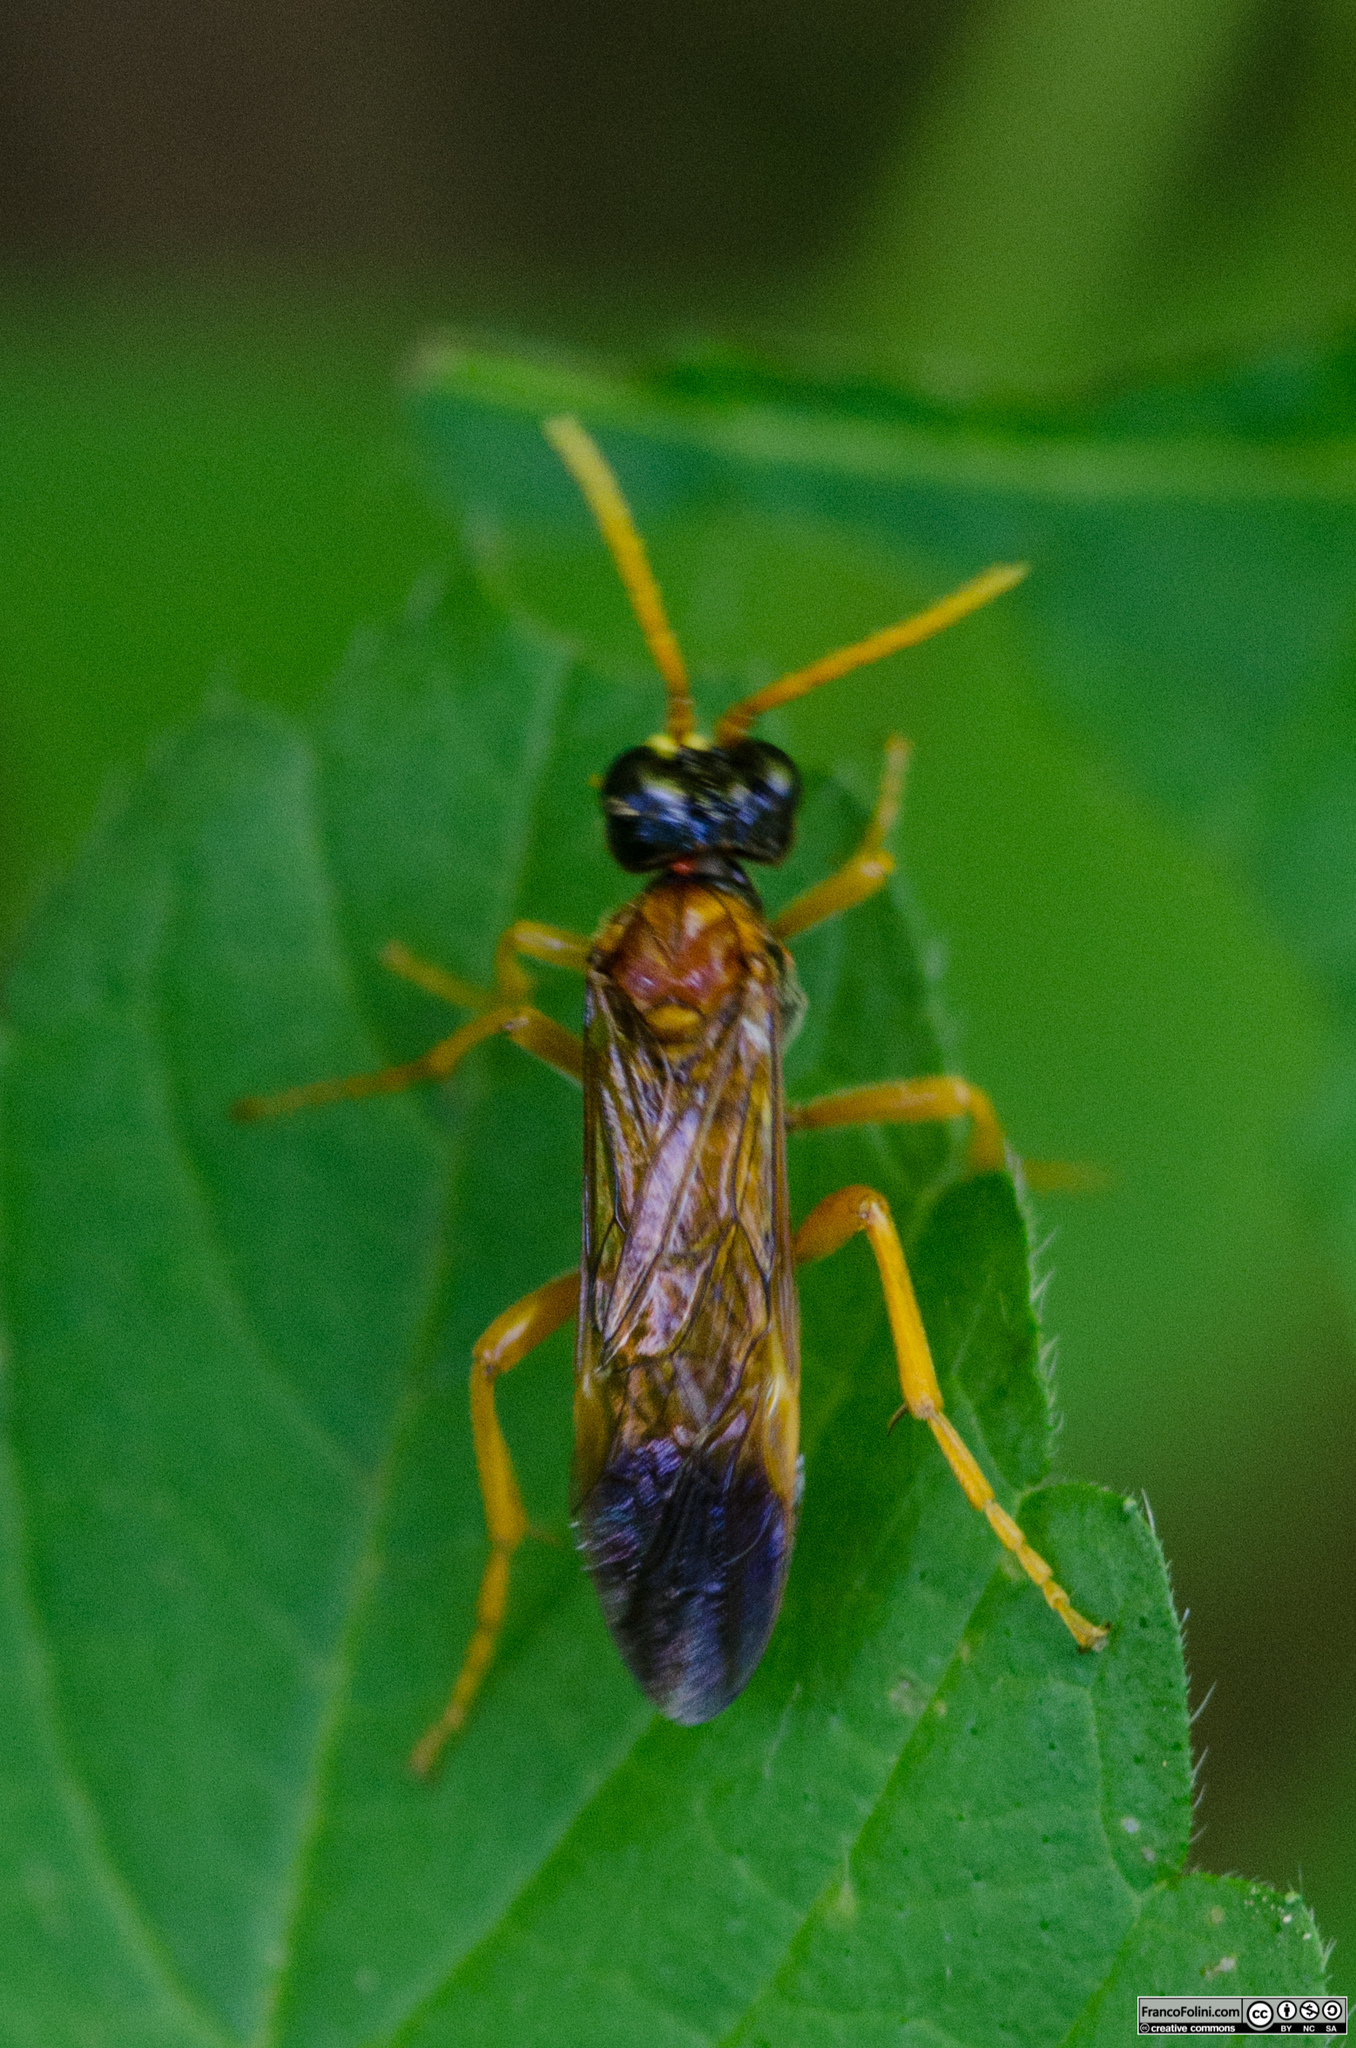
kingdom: Animalia
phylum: Arthropoda
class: Insecta
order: Hymenoptera
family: Tenthredinidae
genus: Tenthredo
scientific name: Tenthredo campestris
